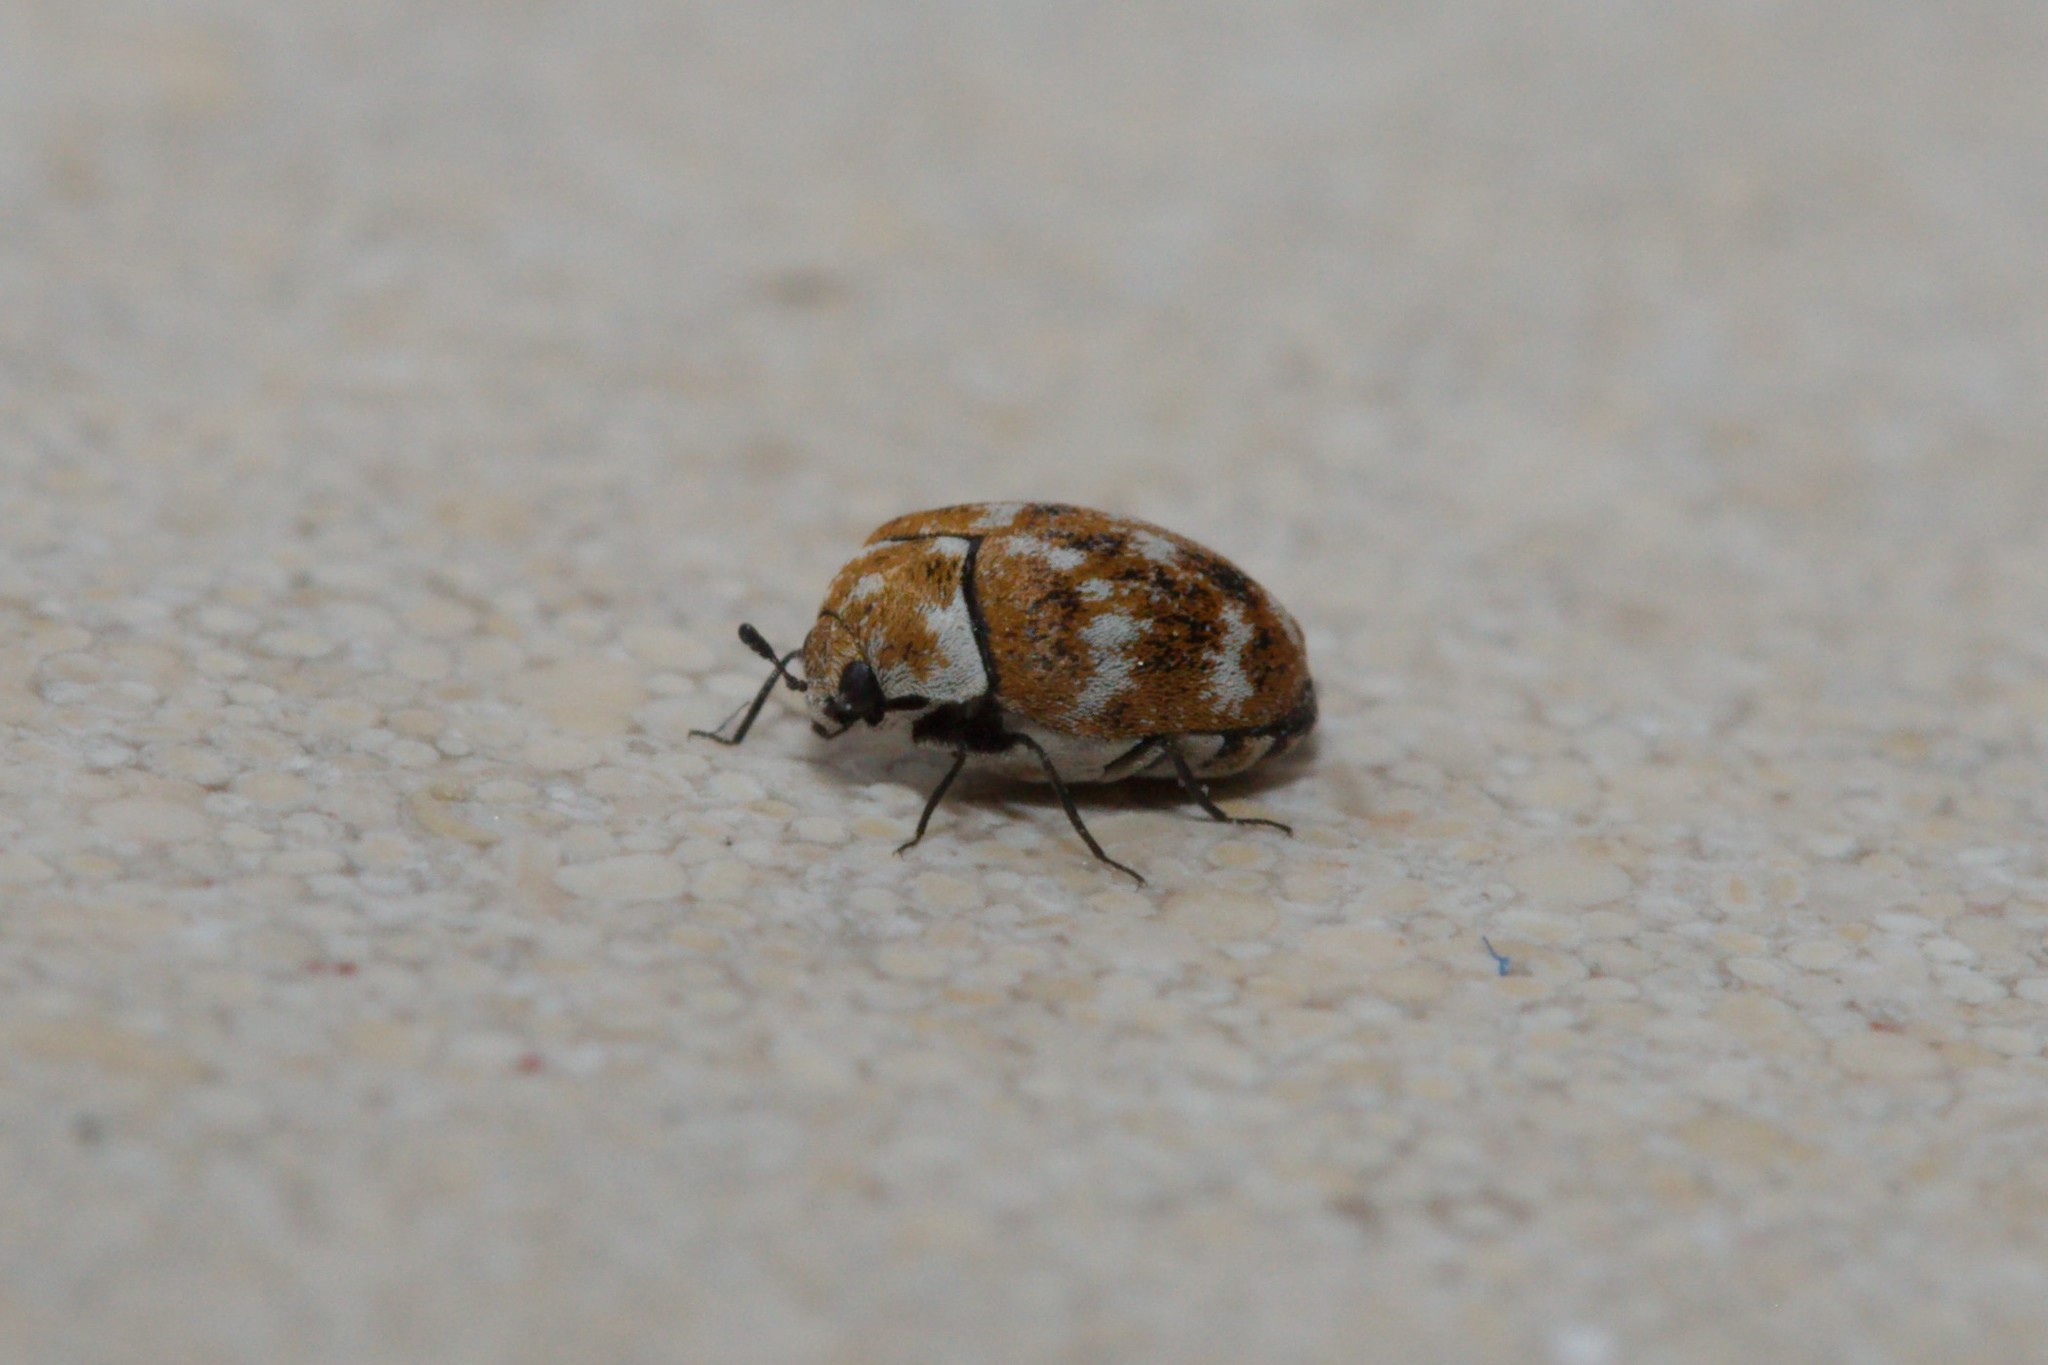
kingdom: Animalia
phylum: Arthropoda
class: Insecta
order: Coleoptera
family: Dermestidae
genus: Anthrenus
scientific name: Anthrenus verbasci
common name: Varied carpet beetle
